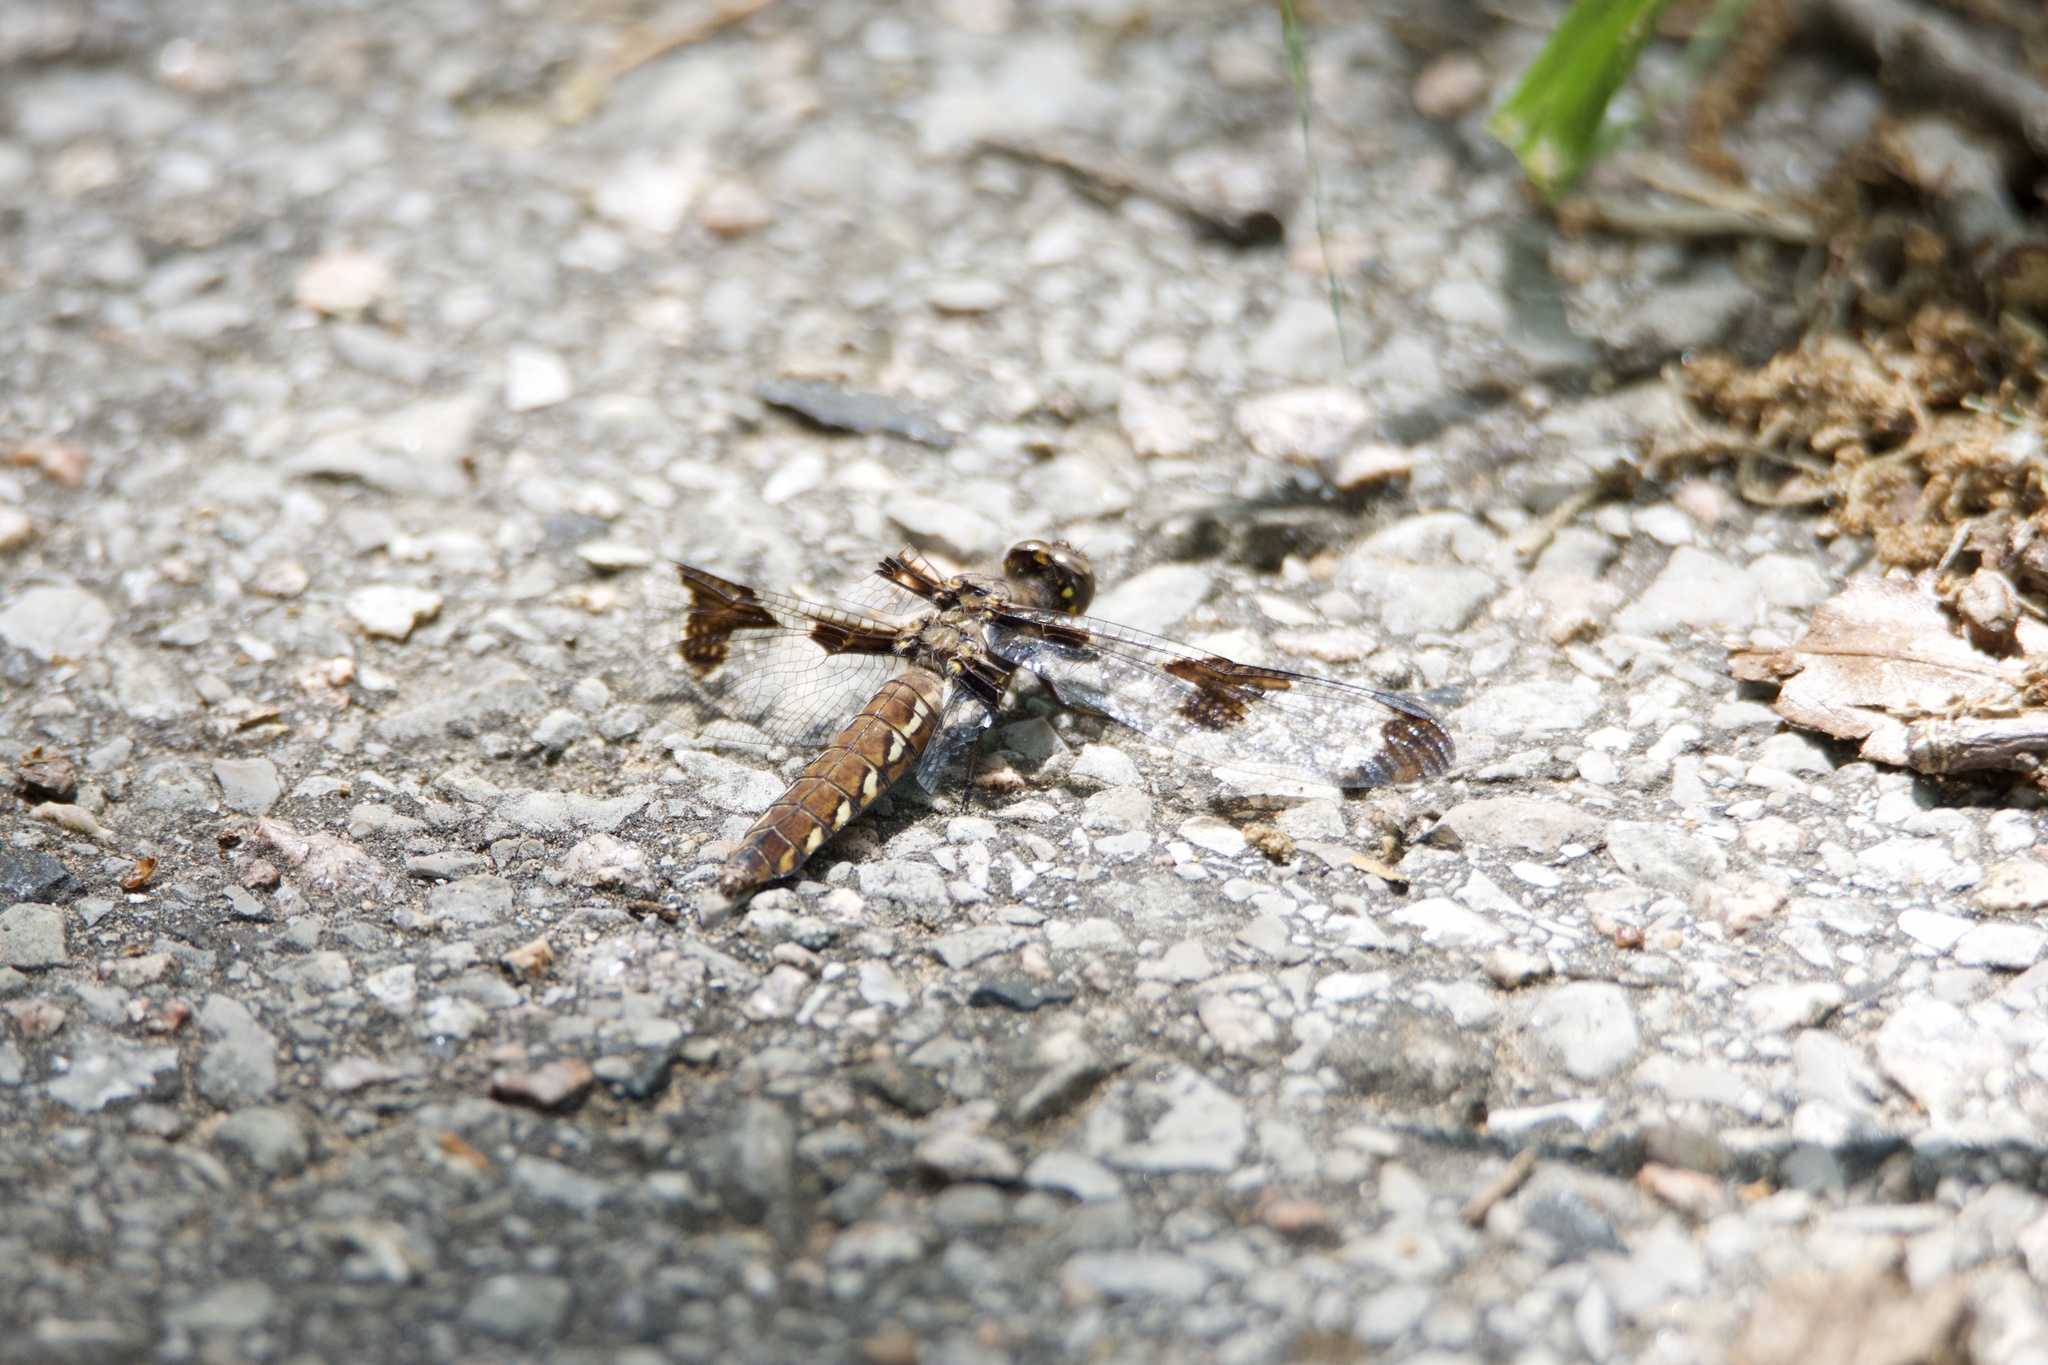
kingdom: Animalia
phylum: Arthropoda
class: Insecta
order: Odonata
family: Libellulidae
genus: Plathemis
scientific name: Plathemis lydia
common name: Common whitetail
